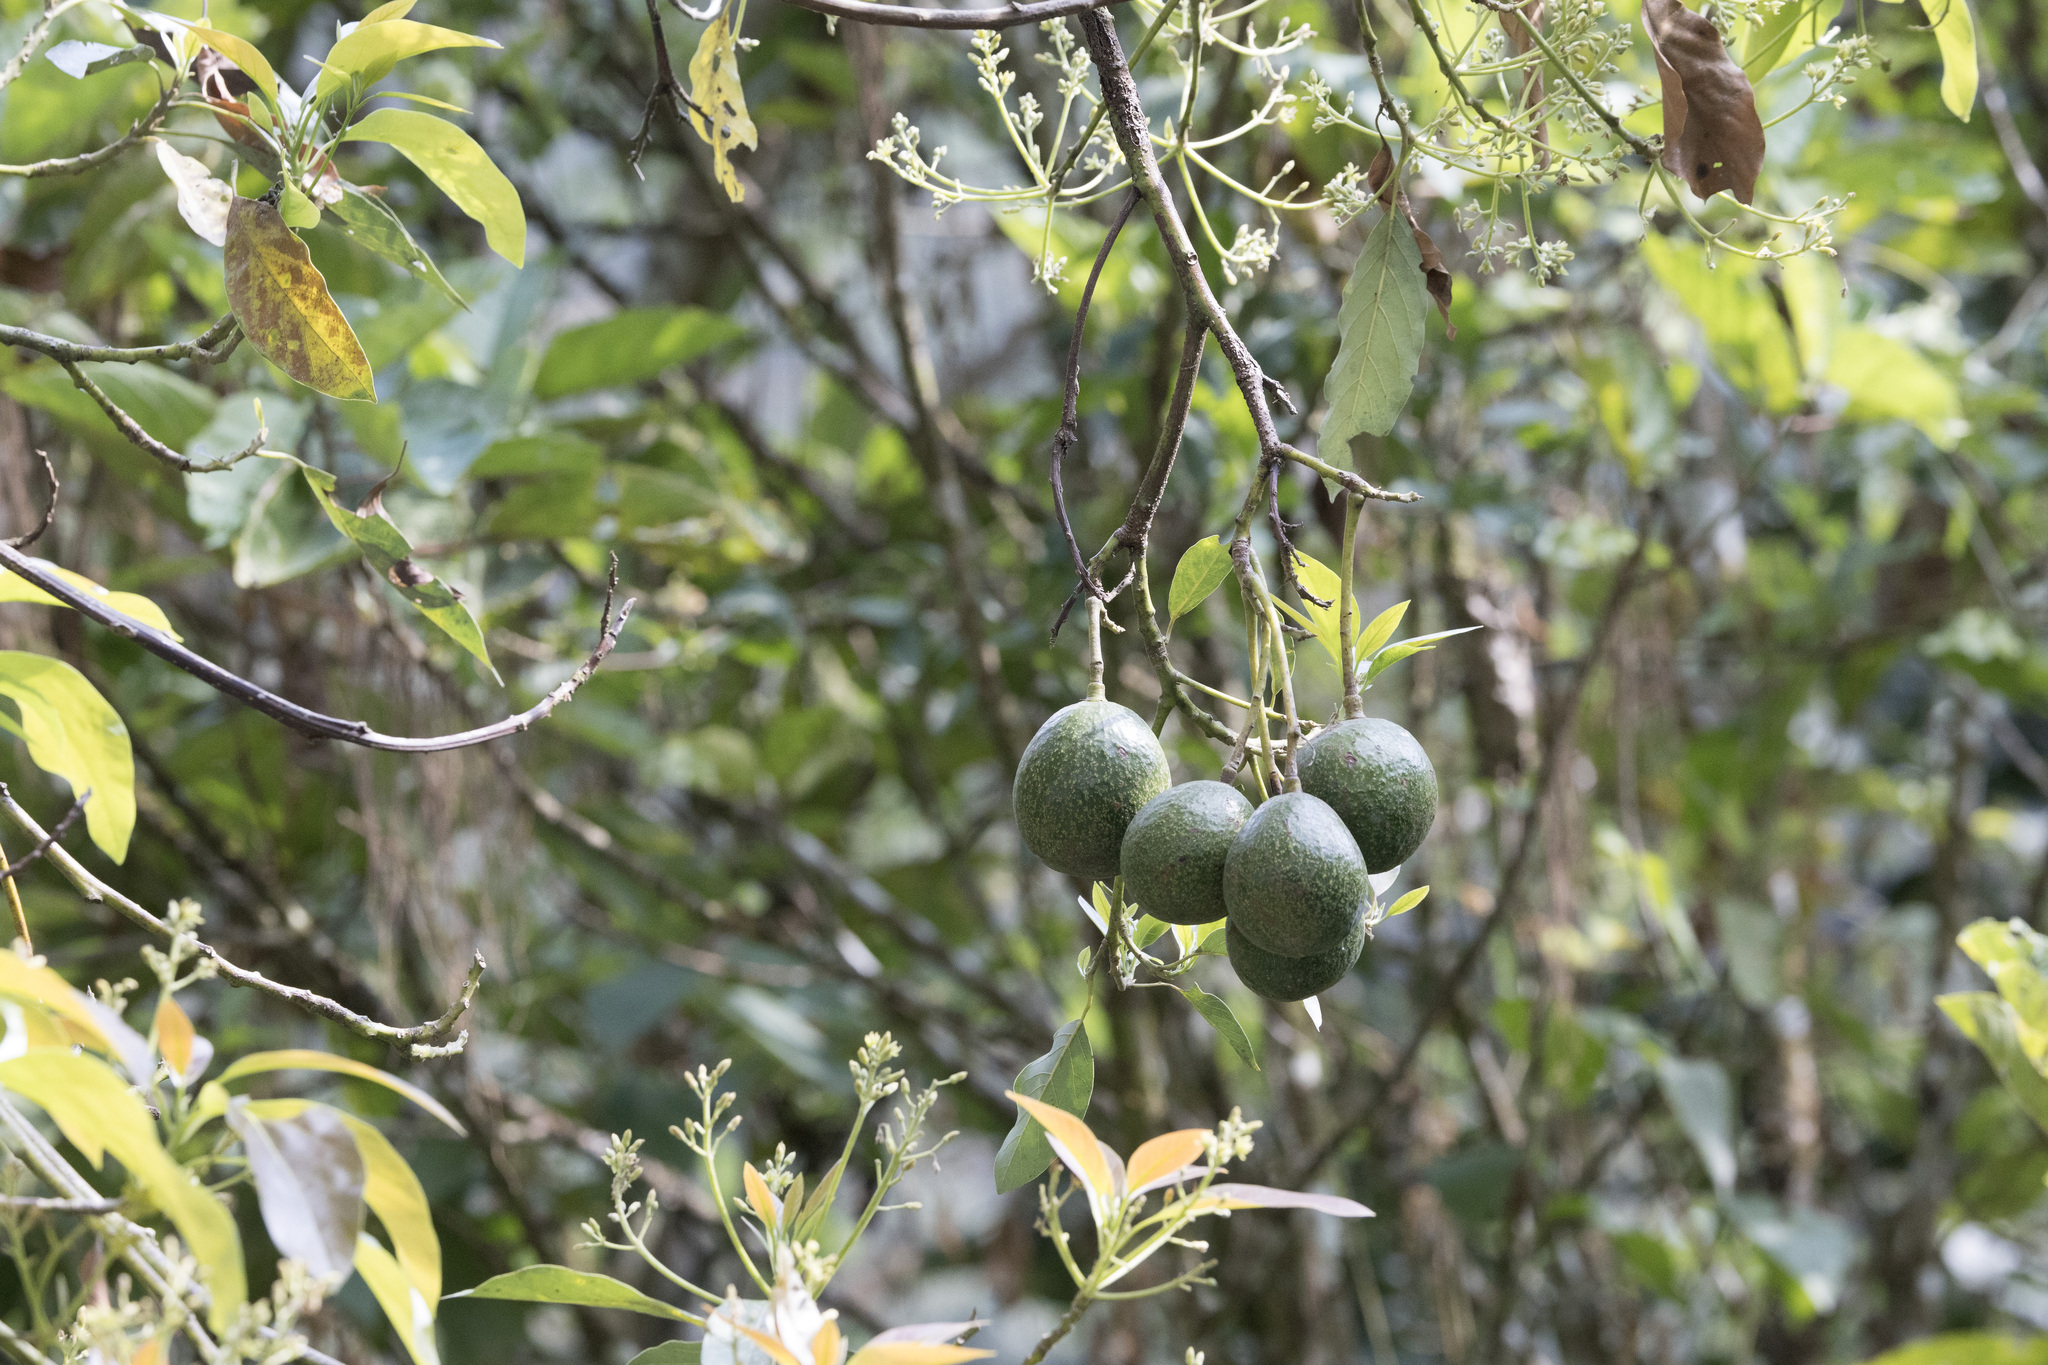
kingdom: Plantae
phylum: Tracheophyta
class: Magnoliopsida
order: Laurales
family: Lauraceae
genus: Persea
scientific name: Persea americana
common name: Avocado
